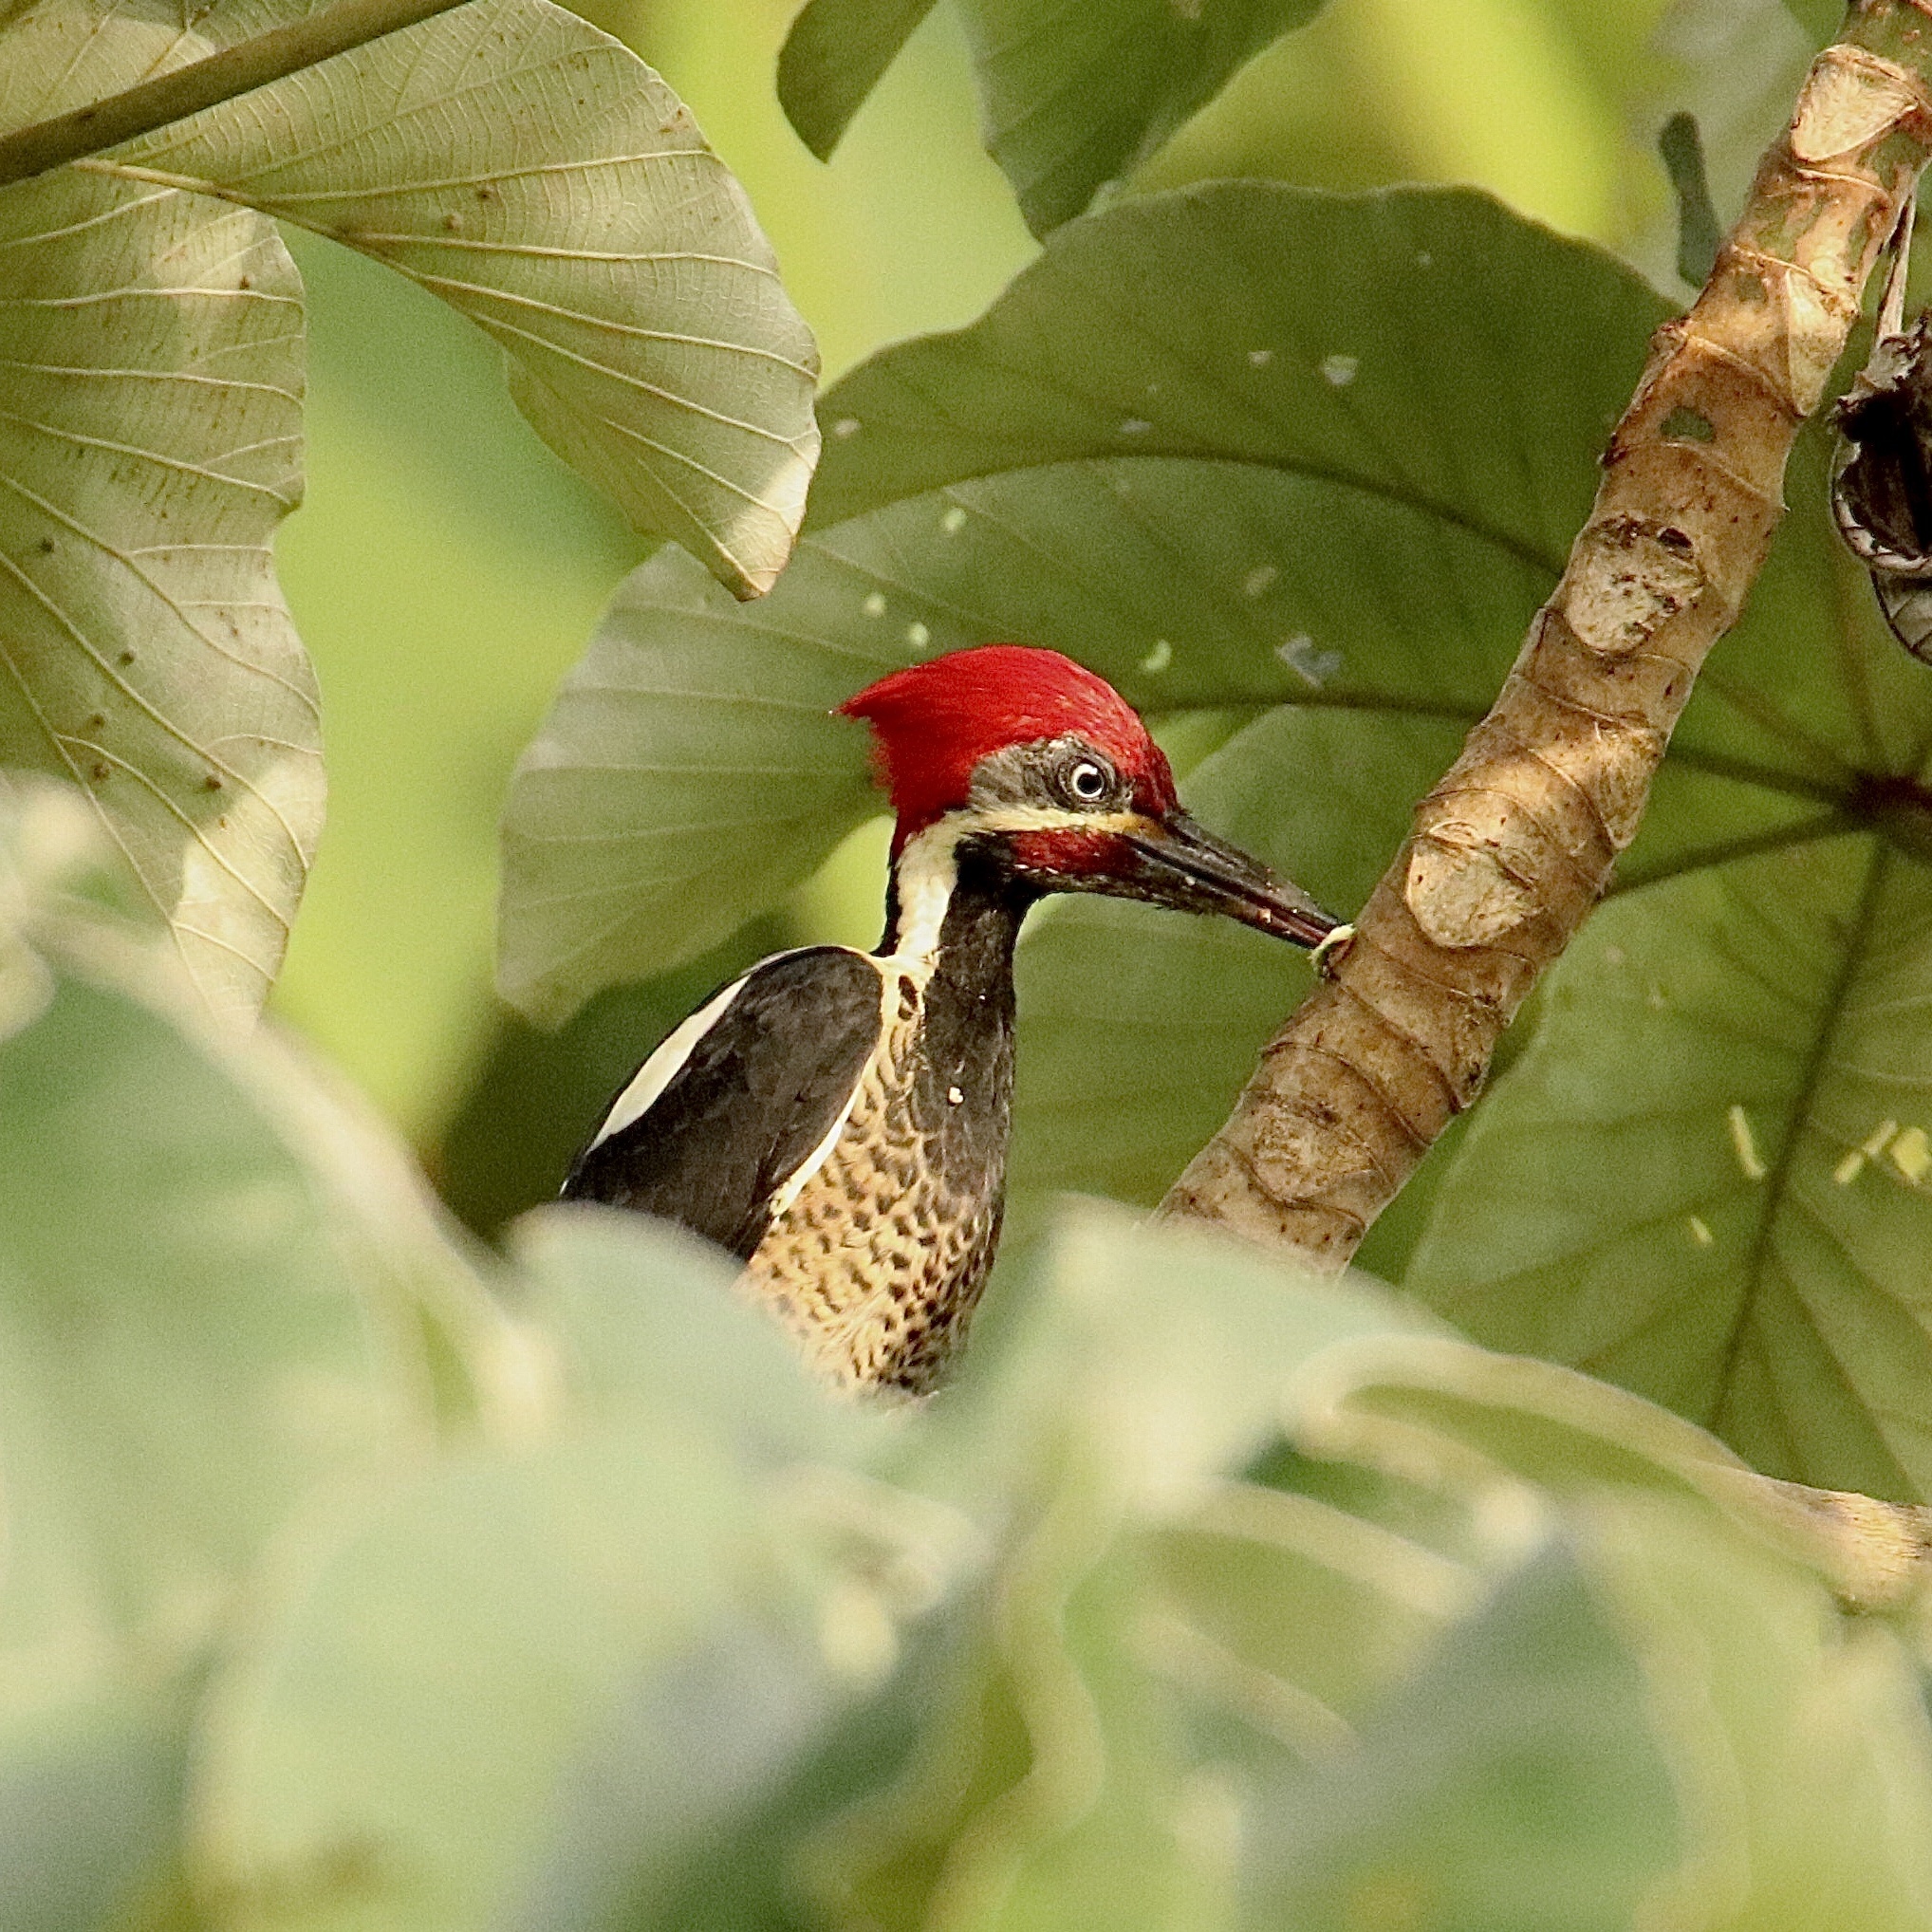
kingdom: Animalia
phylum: Chordata
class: Aves
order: Piciformes
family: Picidae
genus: Dryocopus
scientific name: Dryocopus lineatus
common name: Lineated woodpecker
